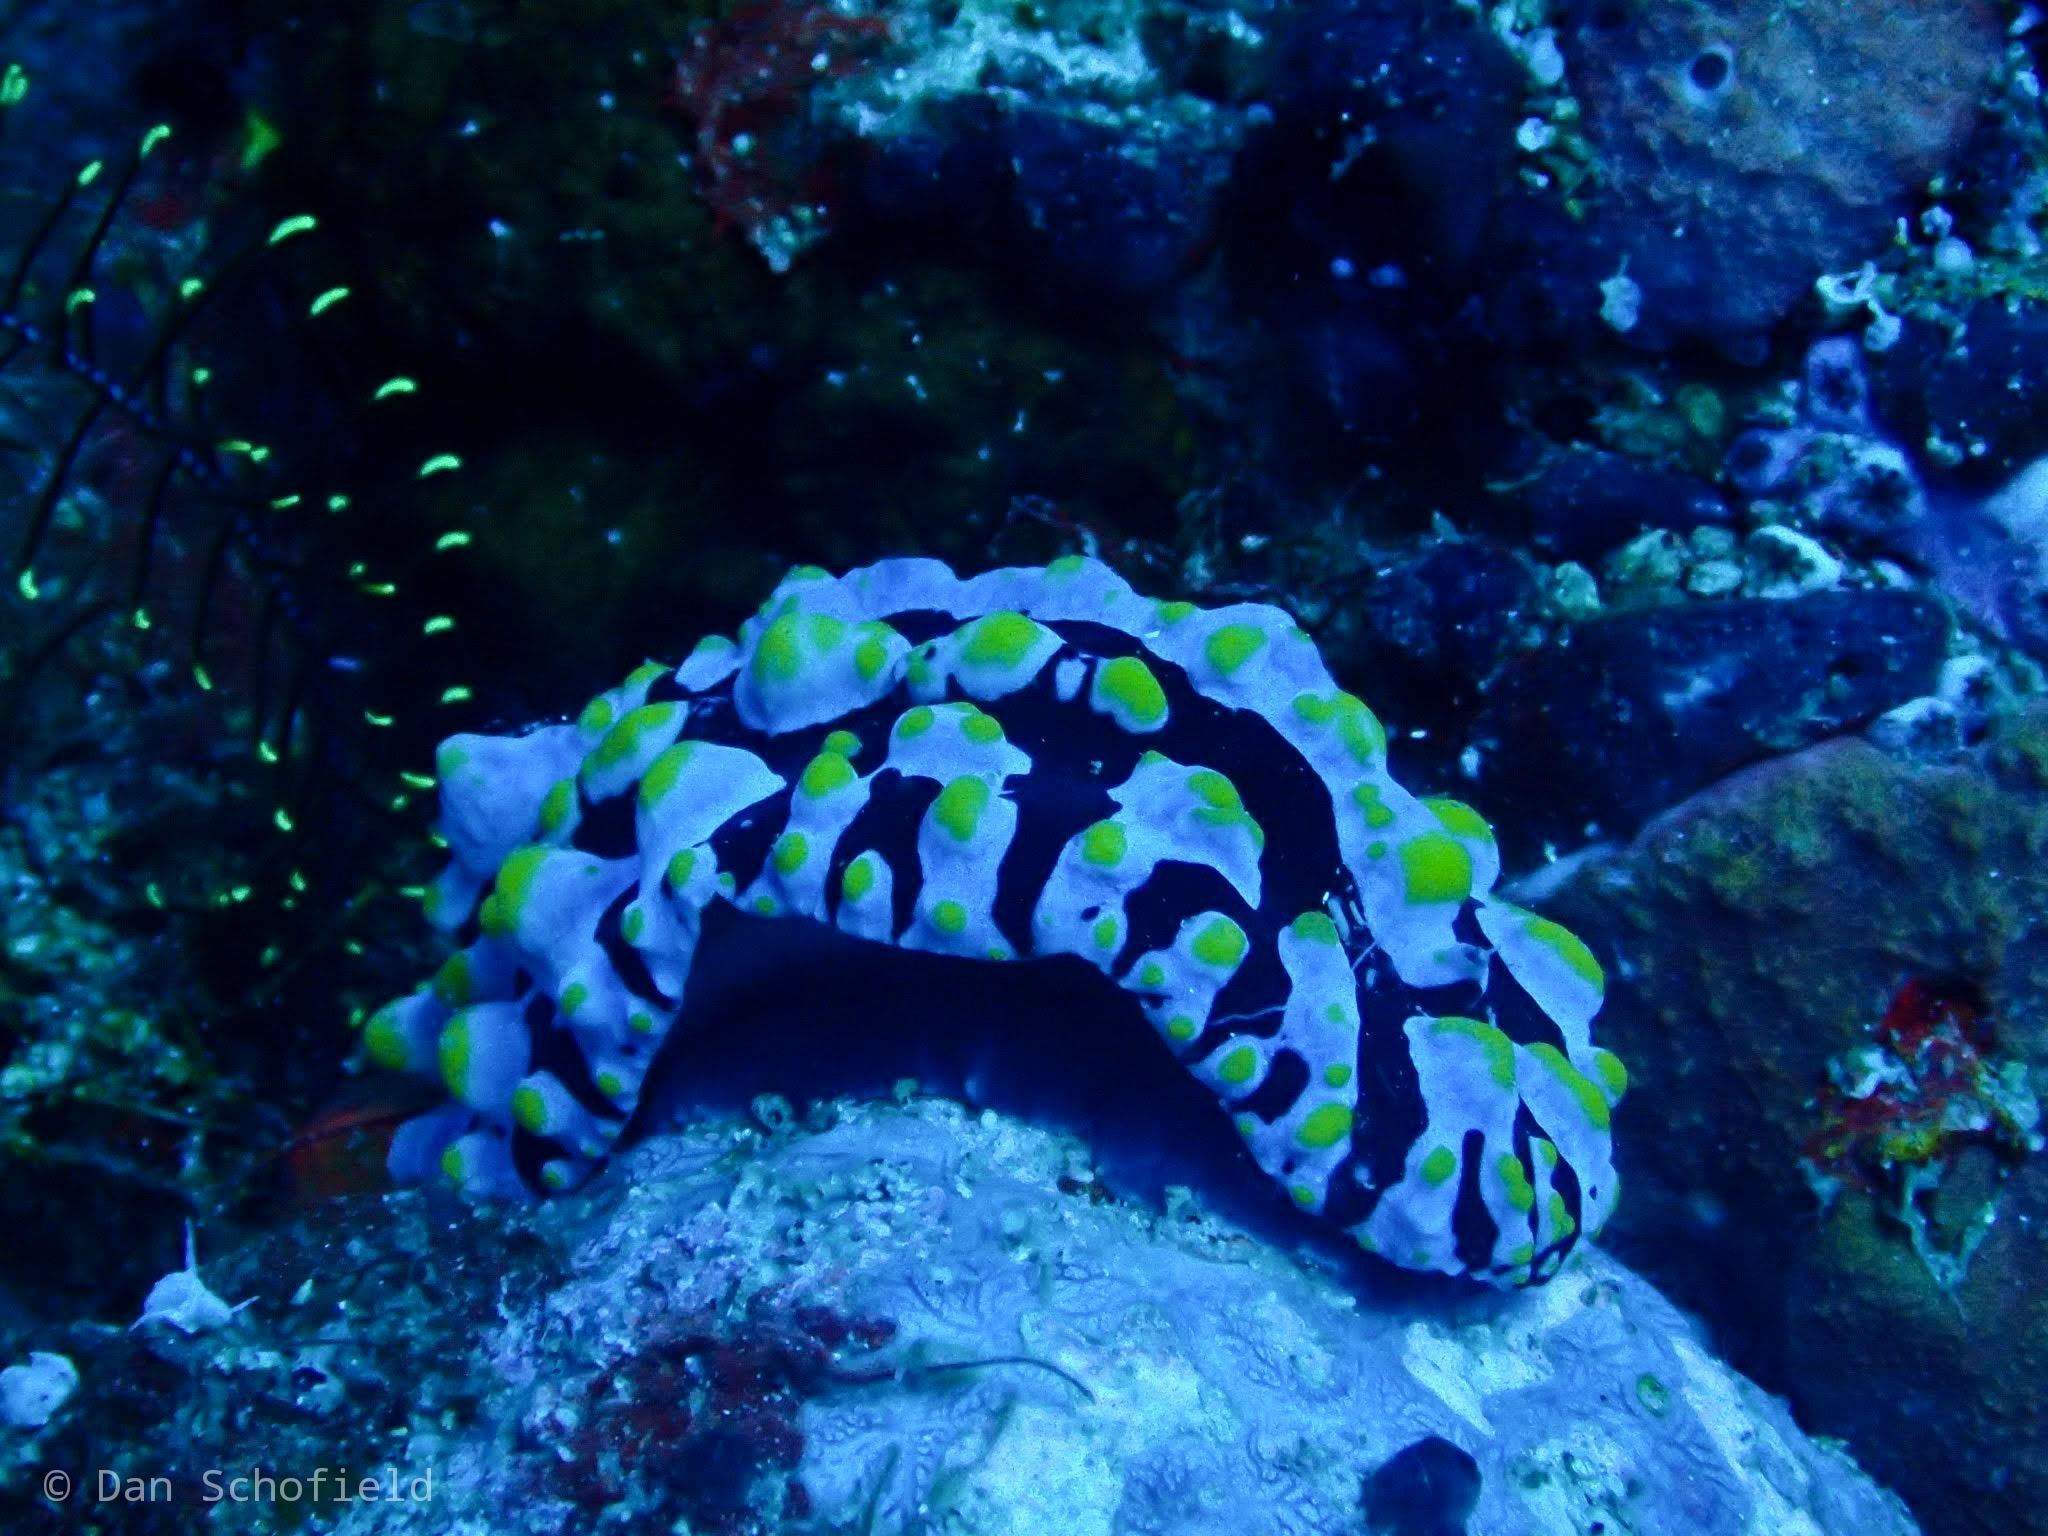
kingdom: Animalia
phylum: Mollusca
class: Gastropoda
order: Nudibranchia
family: Phyllidiidae
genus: Phyllidia
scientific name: Phyllidia varicosa
